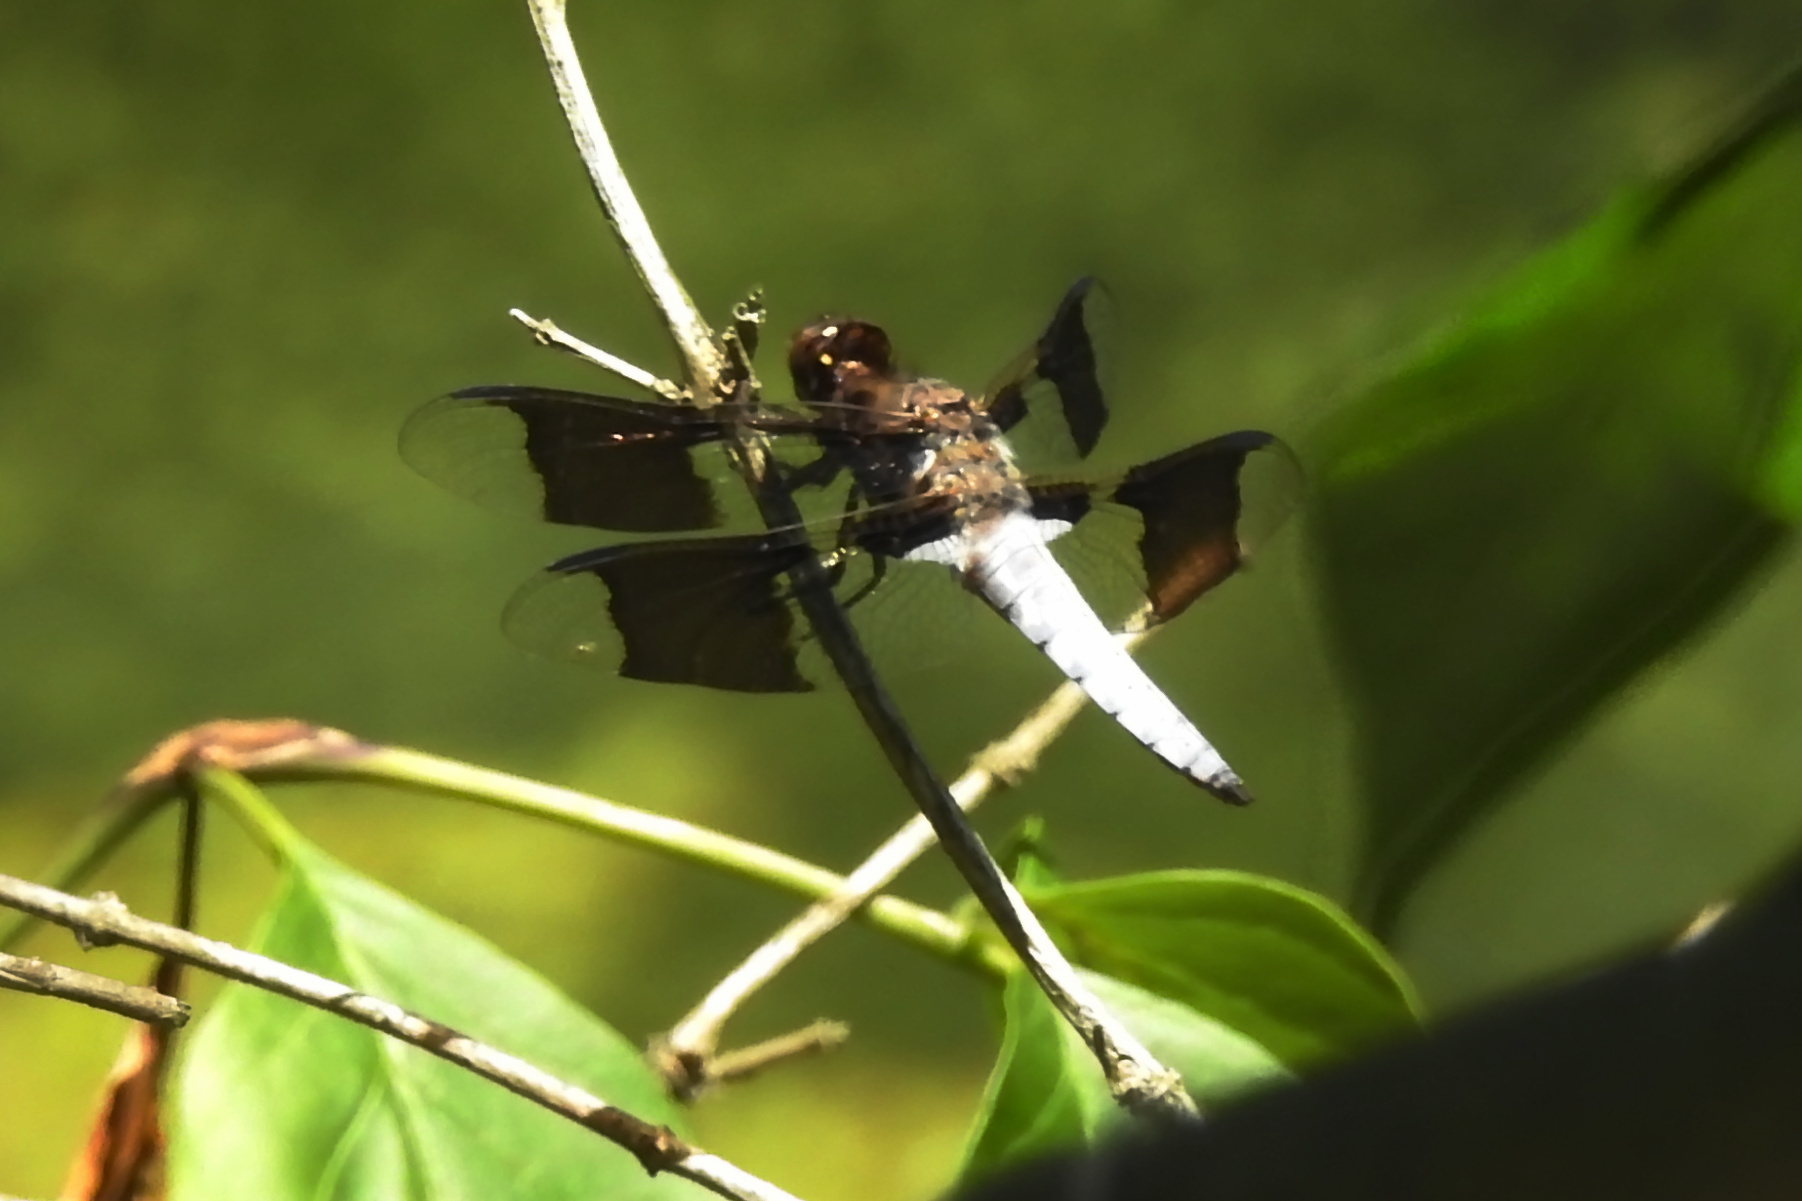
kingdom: Animalia
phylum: Arthropoda
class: Insecta
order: Odonata
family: Libellulidae
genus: Plathemis
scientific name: Plathemis lydia
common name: Common whitetail
